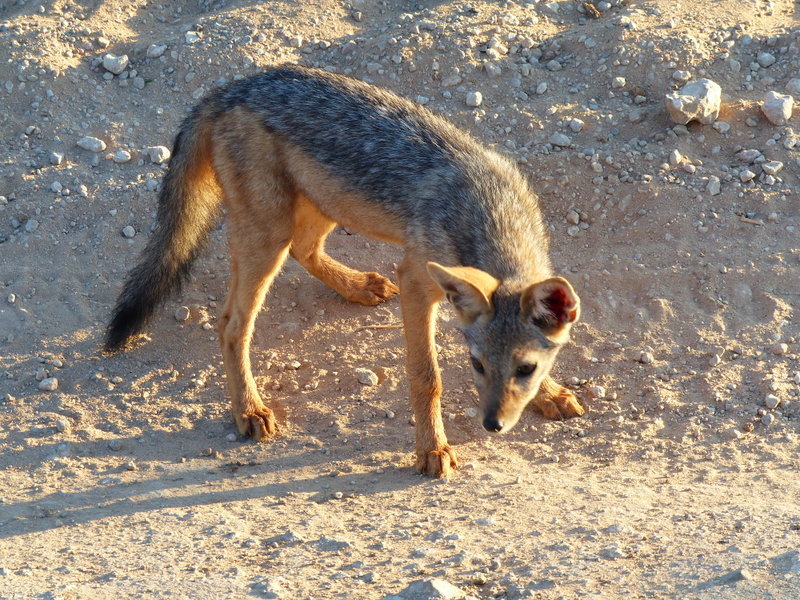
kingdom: Animalia
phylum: Chordata
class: Mammalia
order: Carnivora
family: Canidae
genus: Lupulella
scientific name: Lupulella
